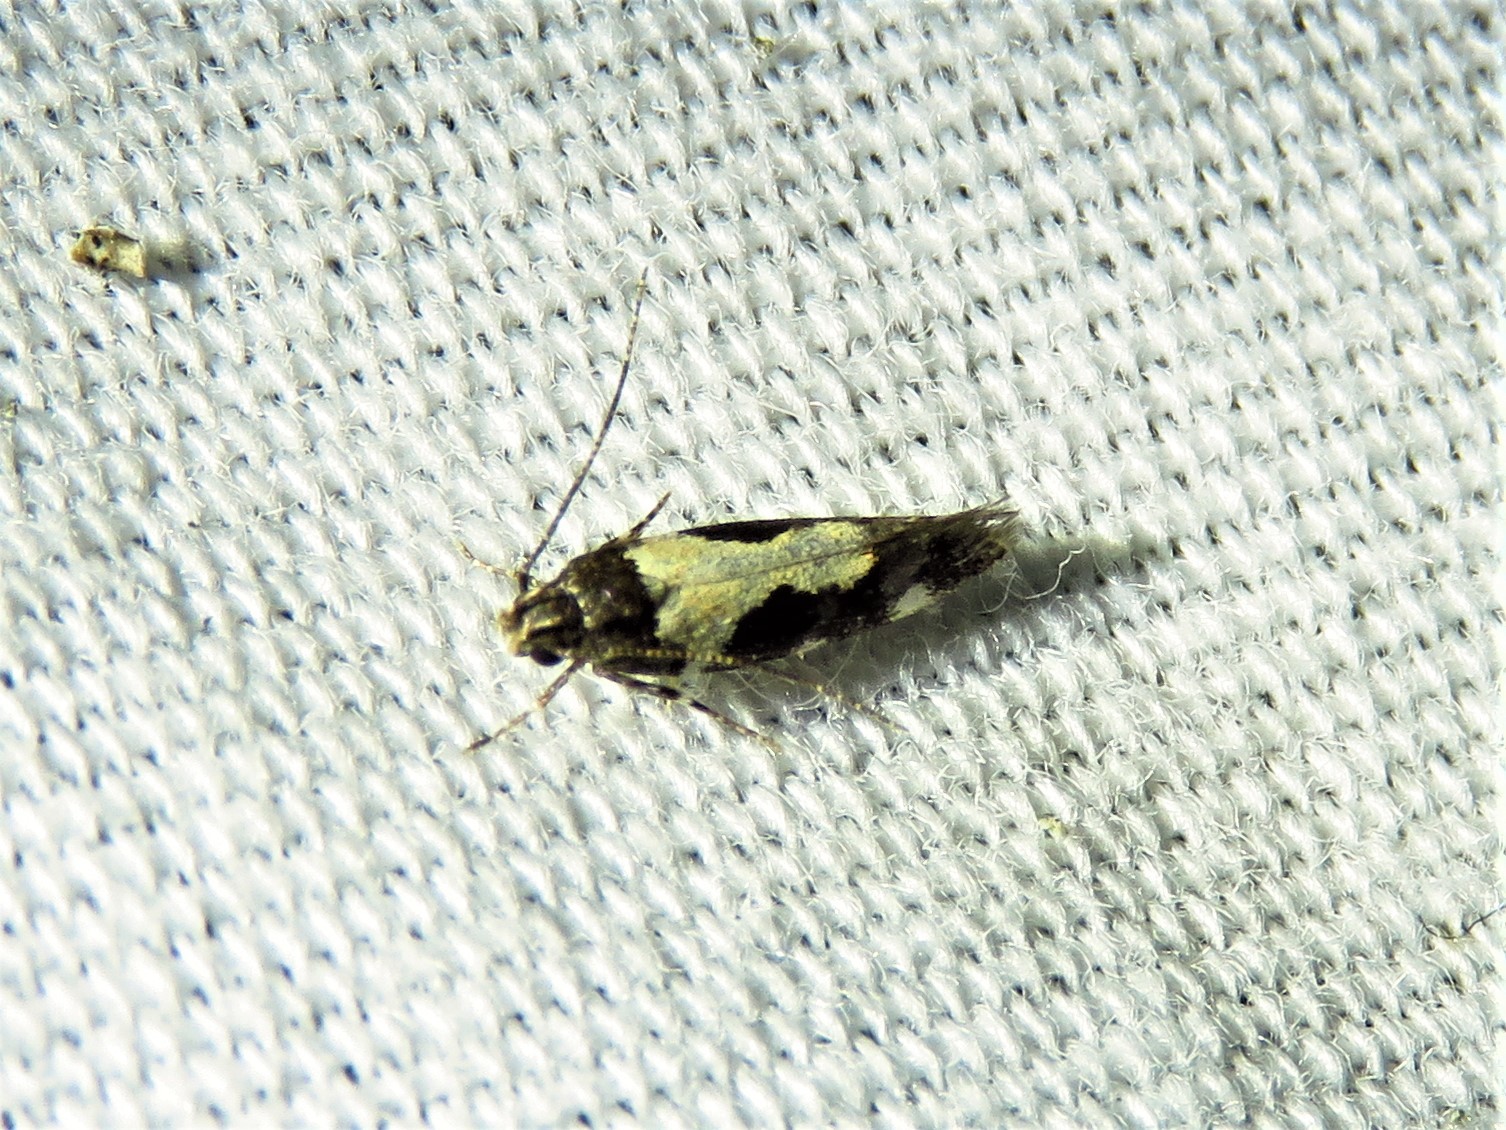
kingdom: Animalia
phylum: Arthropoda
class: Insecta
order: Lepidoptera
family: Gelechiidae
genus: Stegasta
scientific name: Stegasta bosqueella
